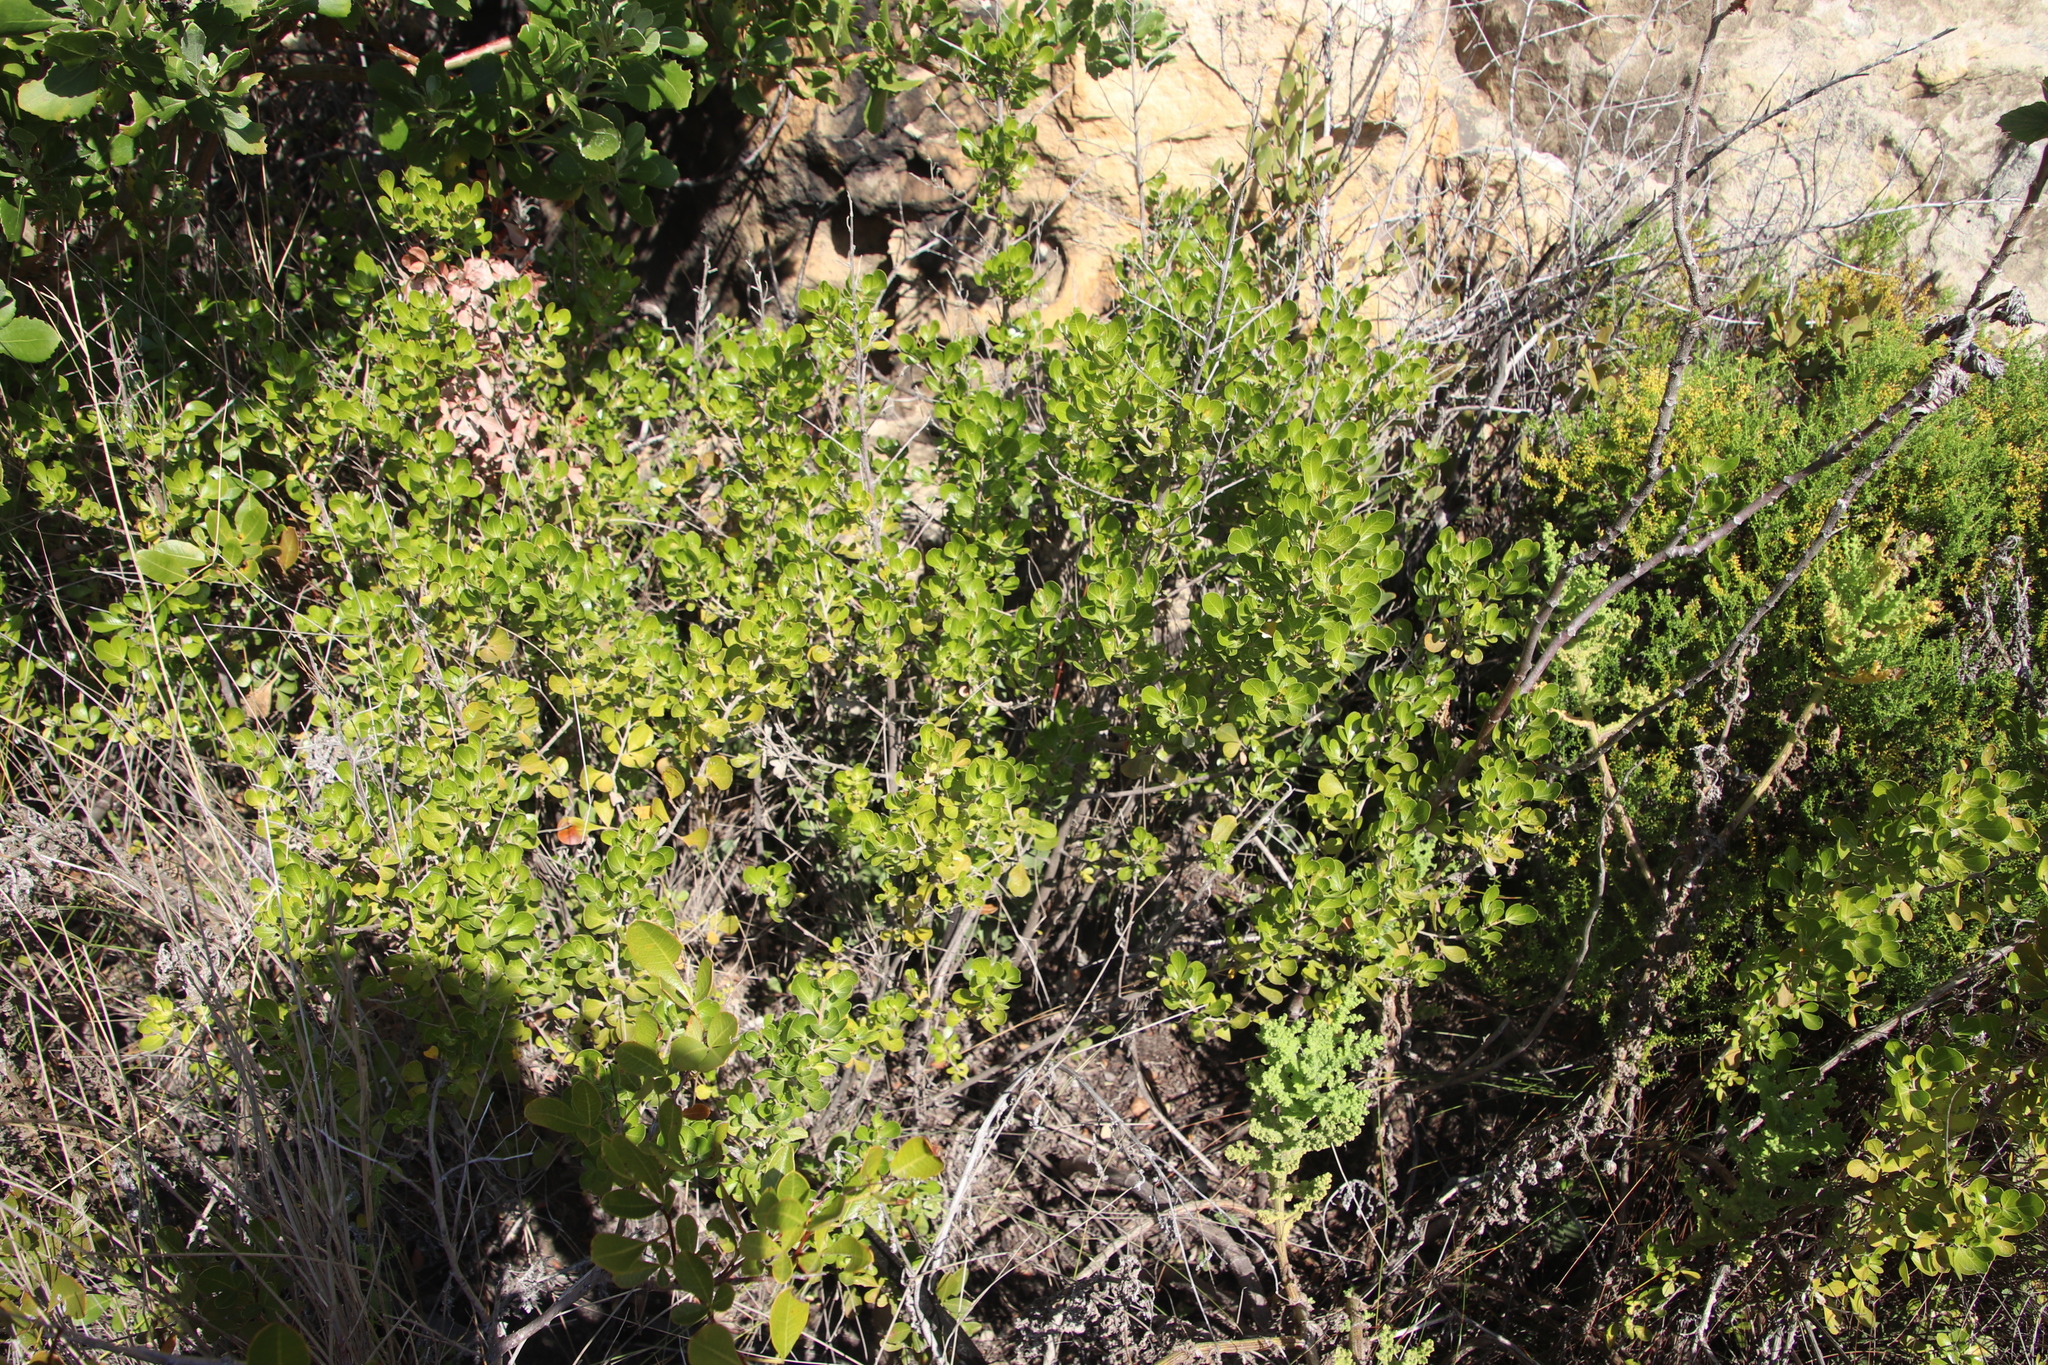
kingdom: Plantae
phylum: Tracheophyta
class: Magnoliopsida
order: Sapindales
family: Anacardiaceae
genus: Searsia
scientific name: Searsia lucida
